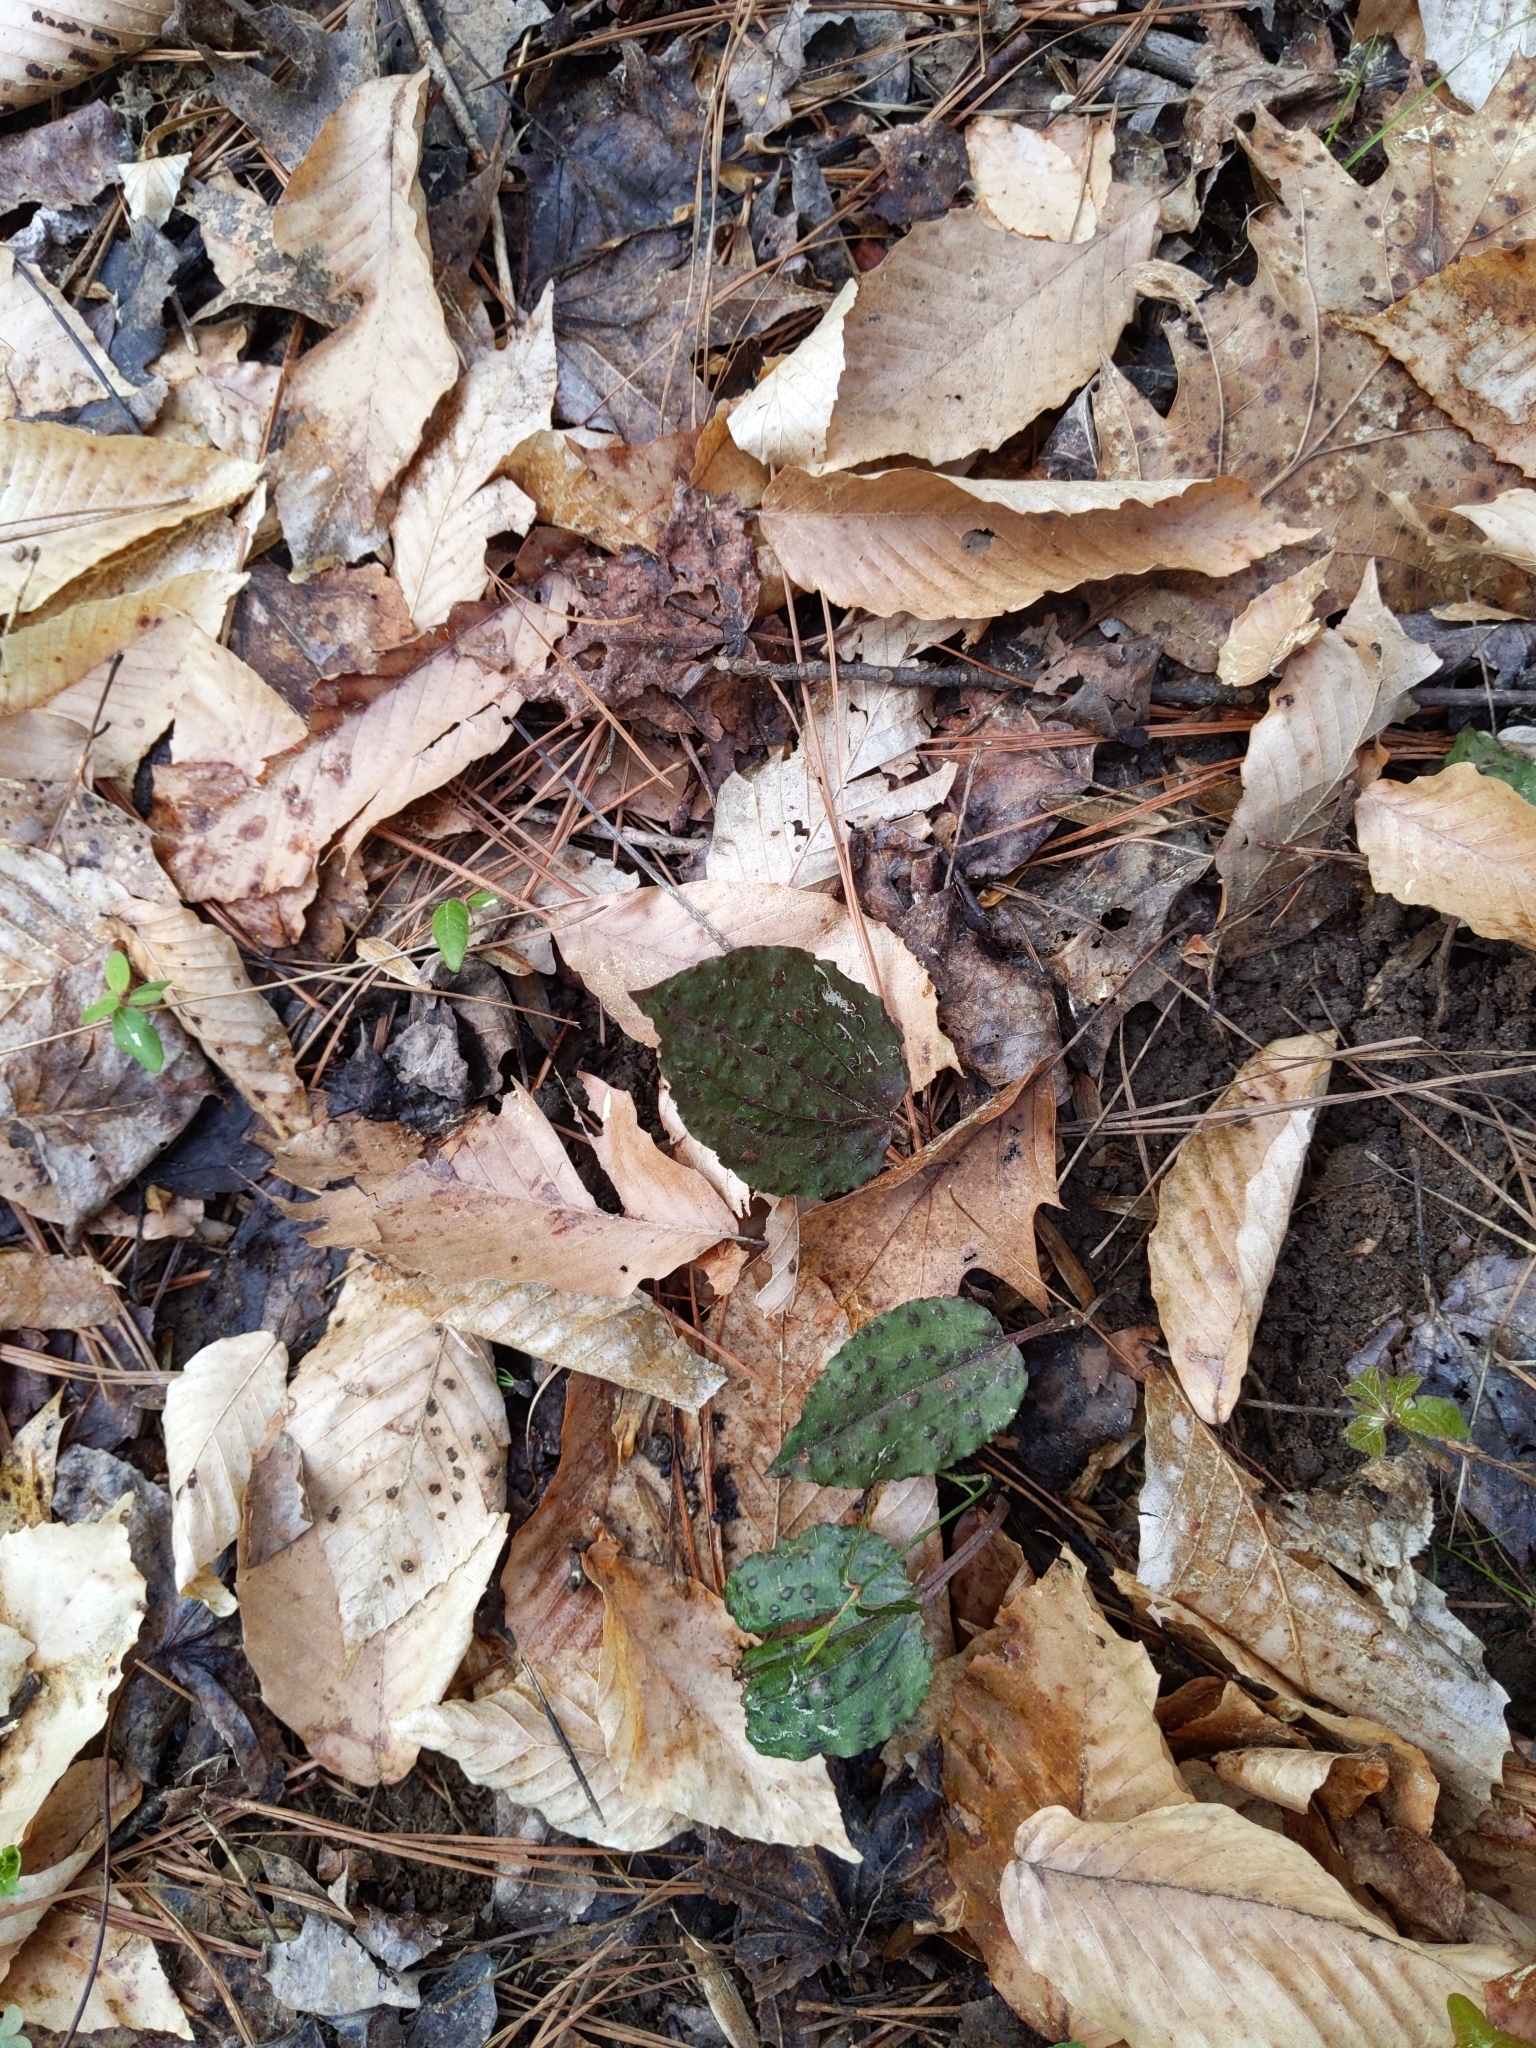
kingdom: Plantae
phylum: Tracheophyta
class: Liliopsida
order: Asparagales
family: Orchidaceae
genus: Tipularia
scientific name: Tipularia discolor
